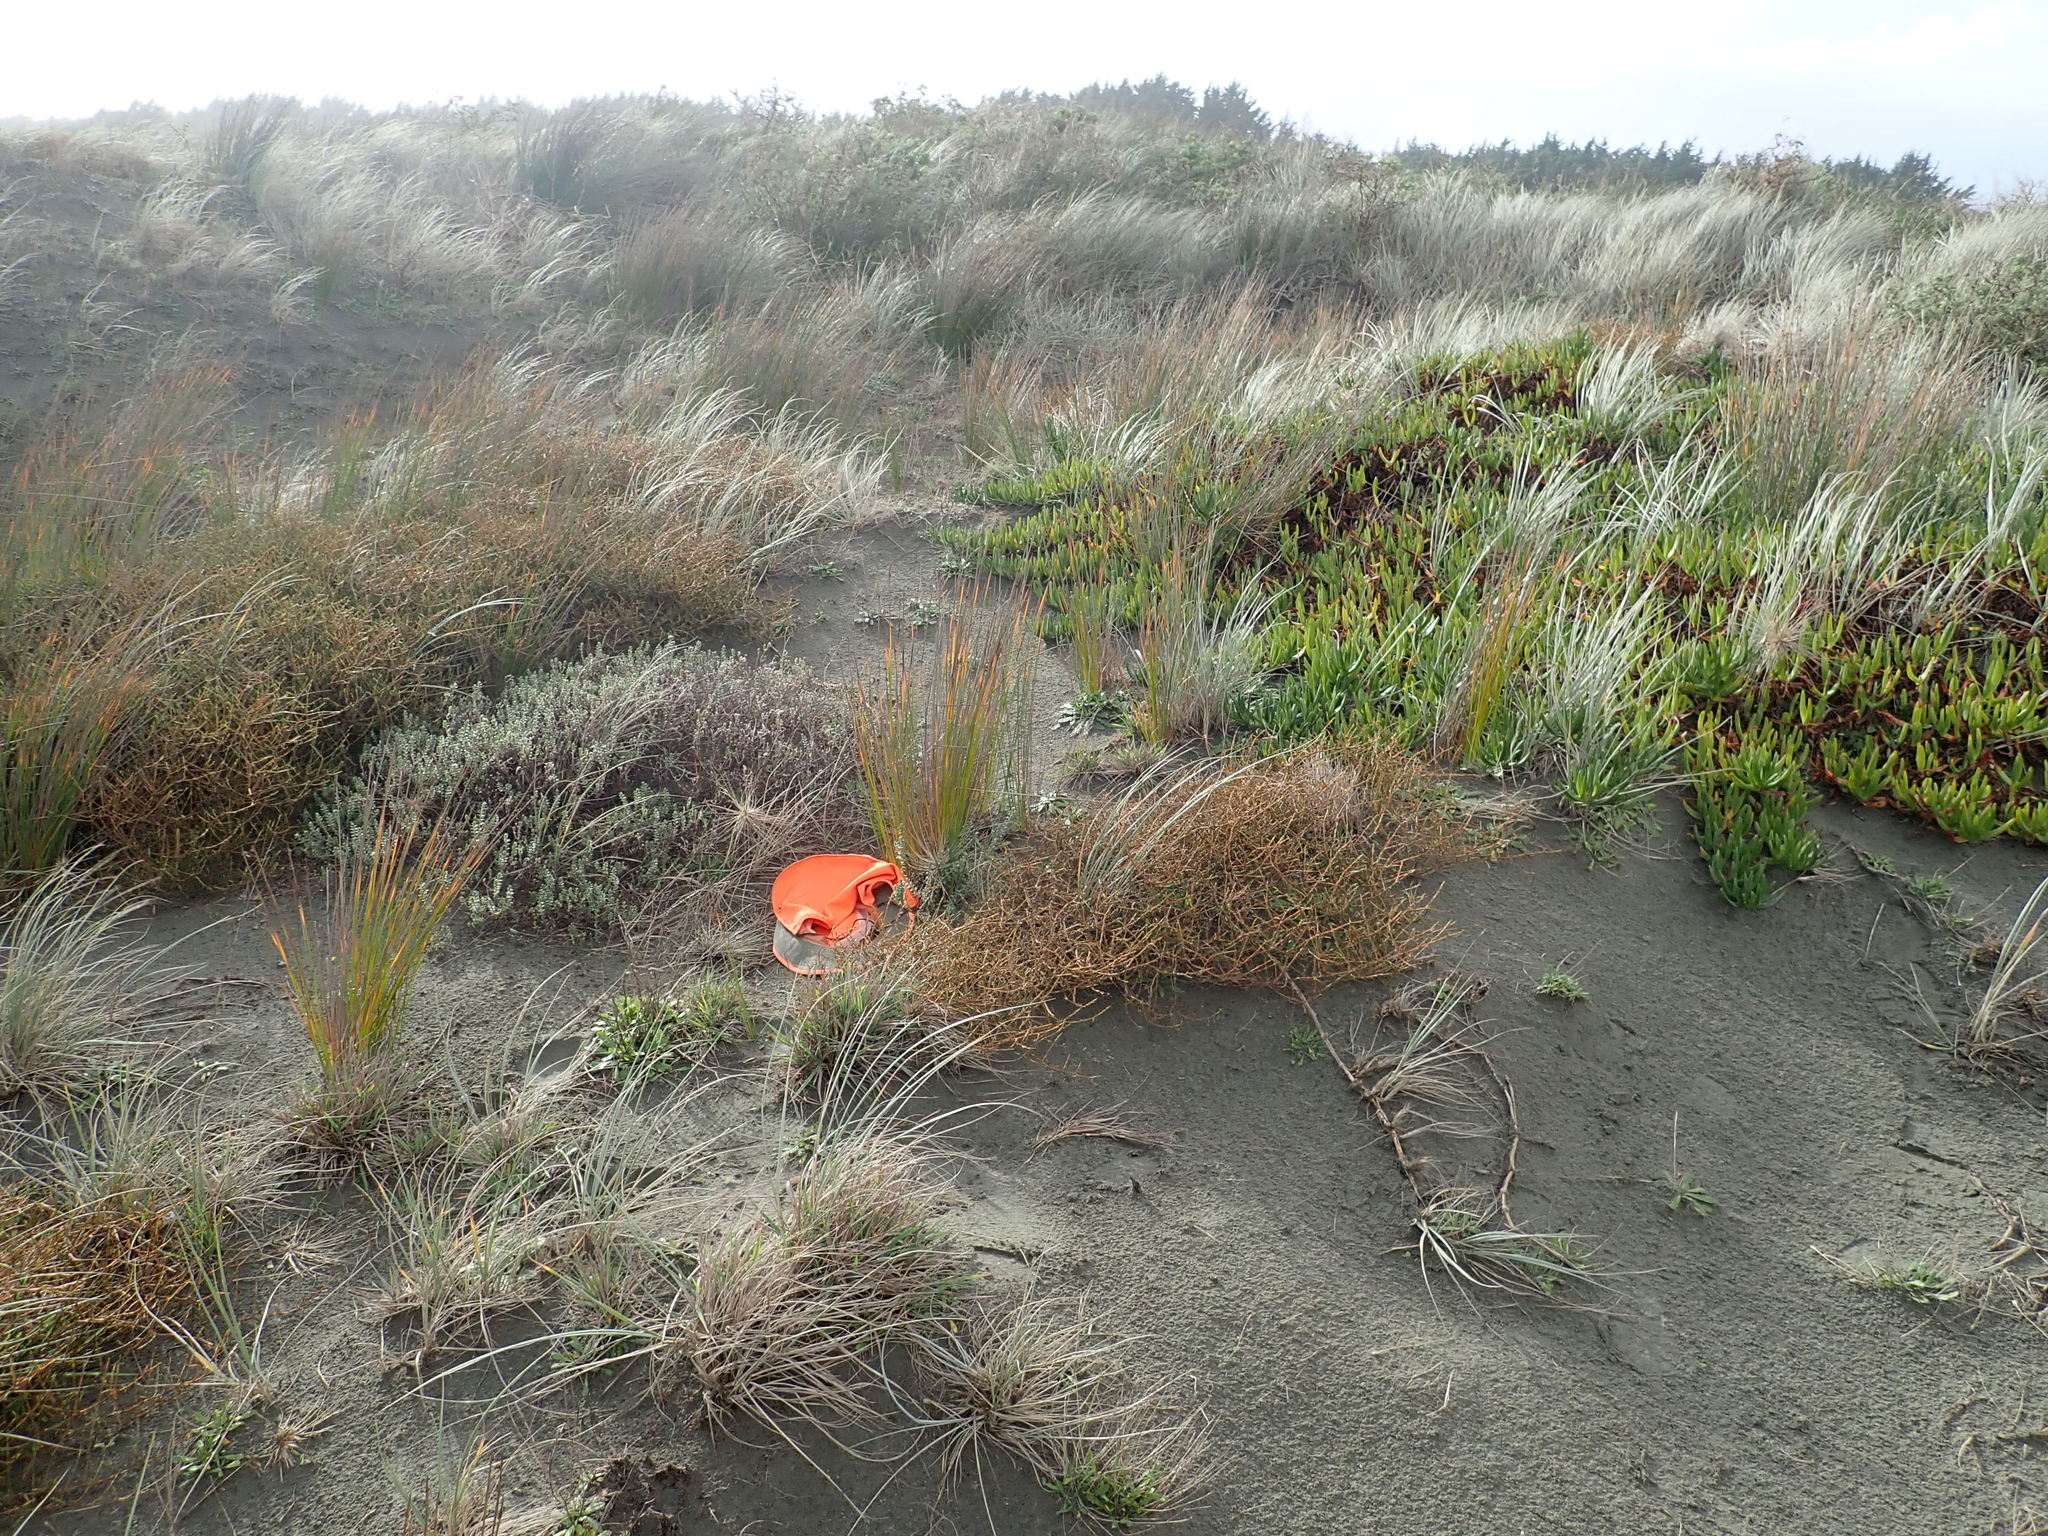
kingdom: Plantae
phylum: Tracheophyta
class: Magnoliopsida
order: Malvales
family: Thymelaeaceae
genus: Pimelea
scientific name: Pimelea villosa
